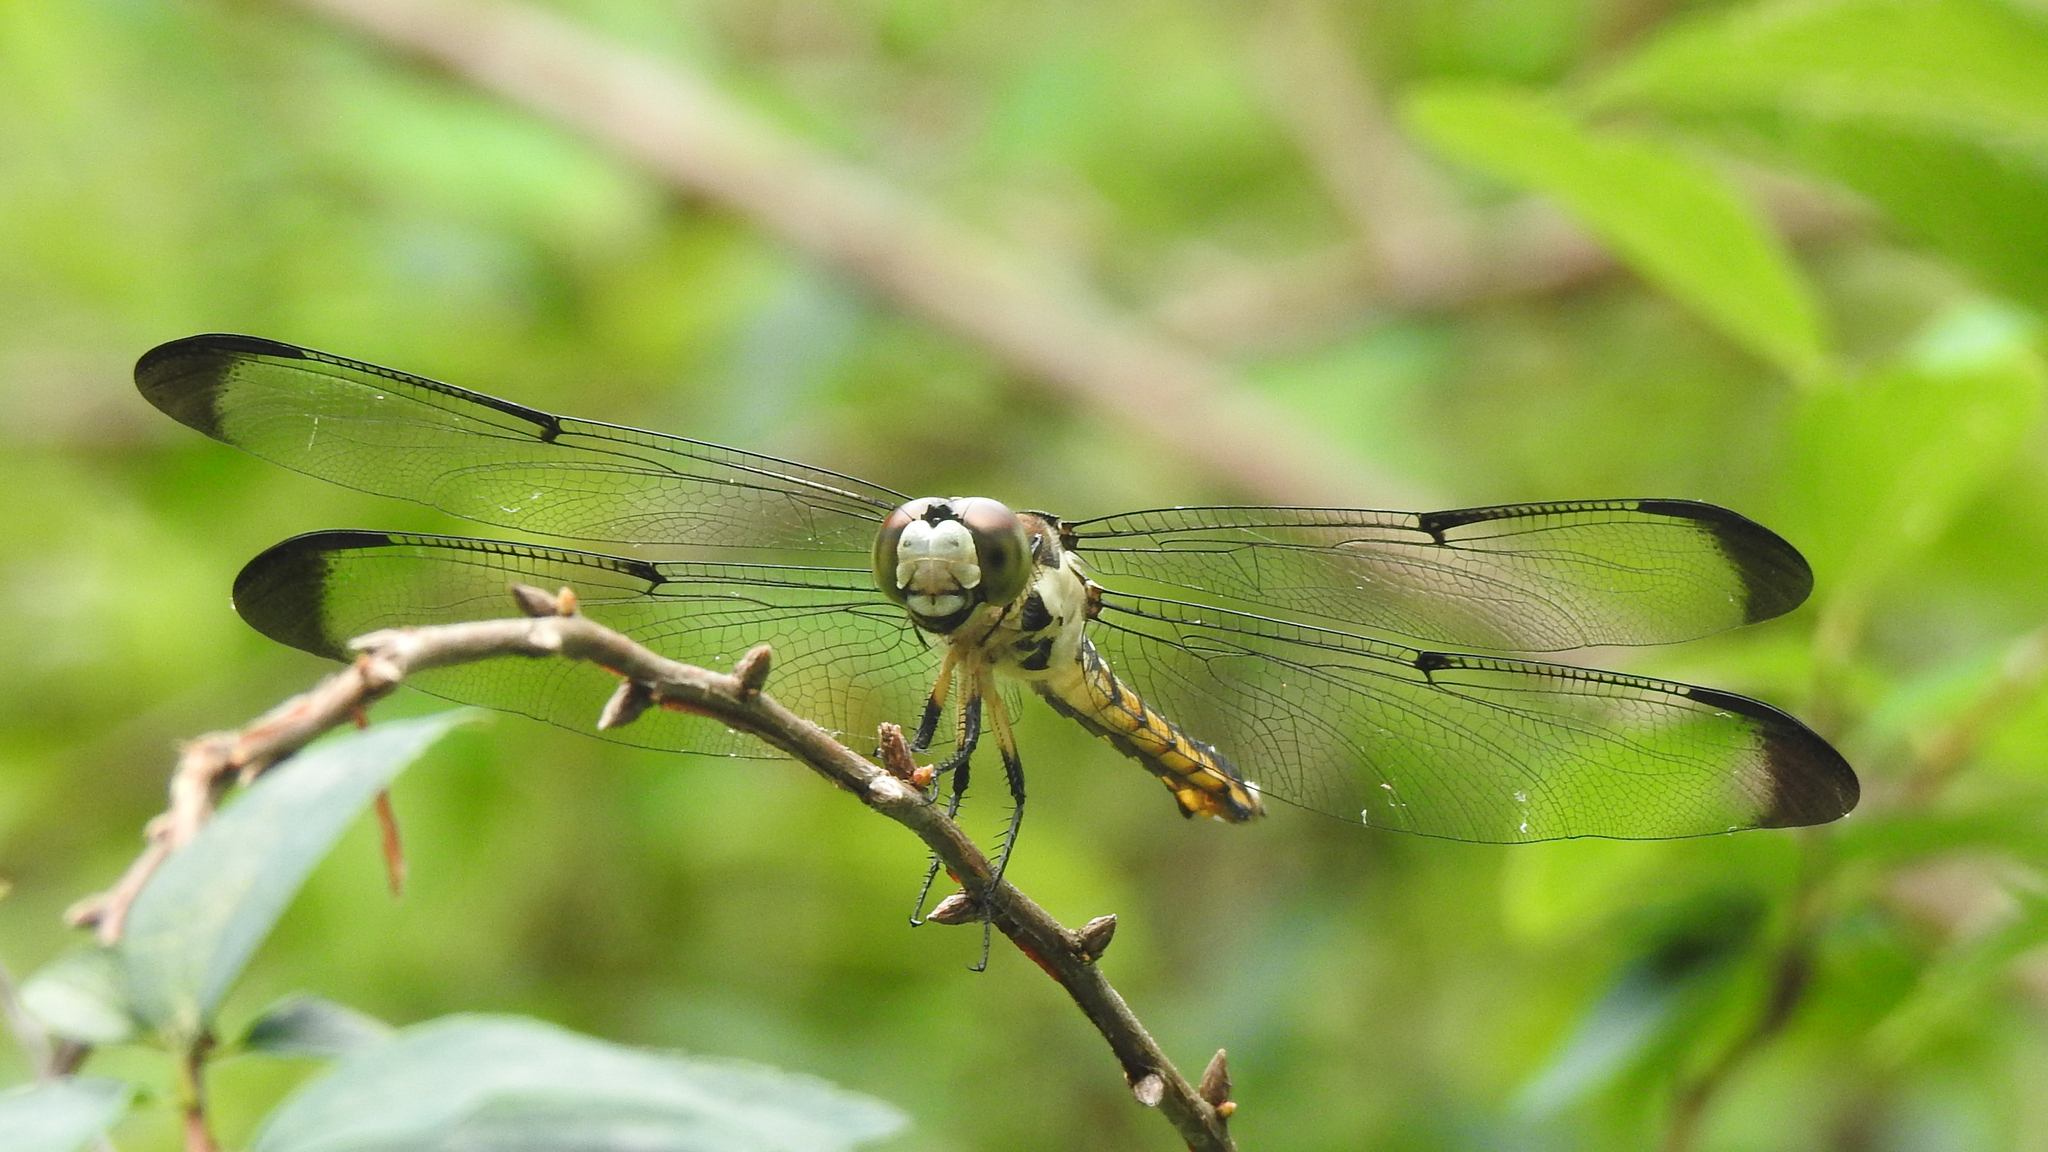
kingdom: Animalia
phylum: Arthropoda
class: Insecta
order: Odonata
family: Libellulidae
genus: Libellula
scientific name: Libellula vibrans
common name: Great blue skimmer
